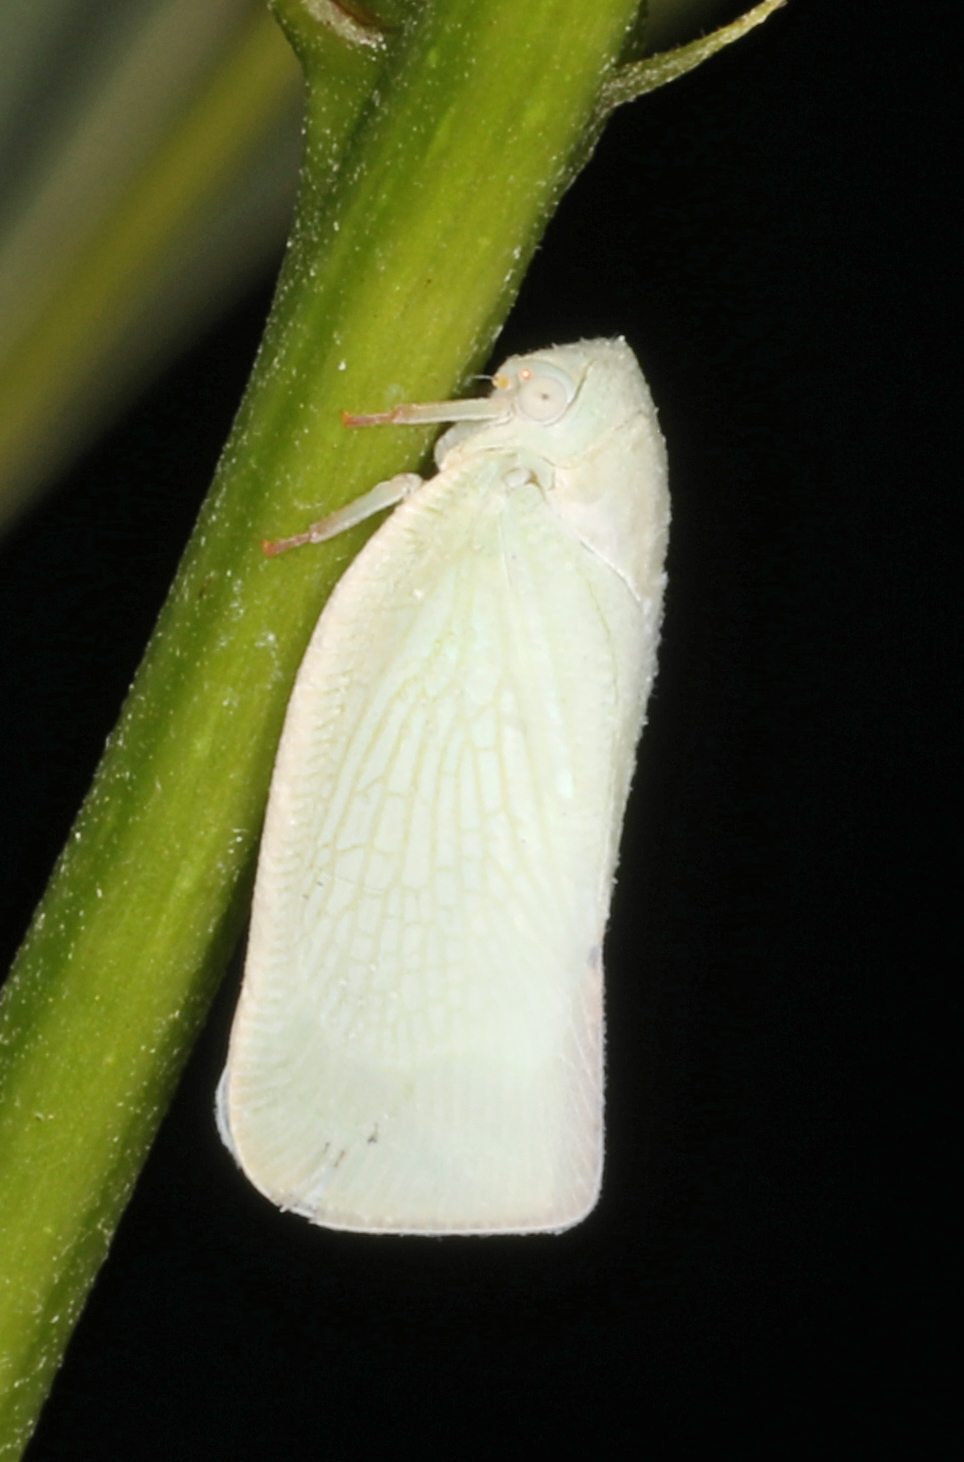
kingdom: Animalia
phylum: Arthropoda
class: Insecta
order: Hemiptera
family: Flatidae
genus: Flatormenis
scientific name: Flatormenis proxima
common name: Northern flatid planthopper
